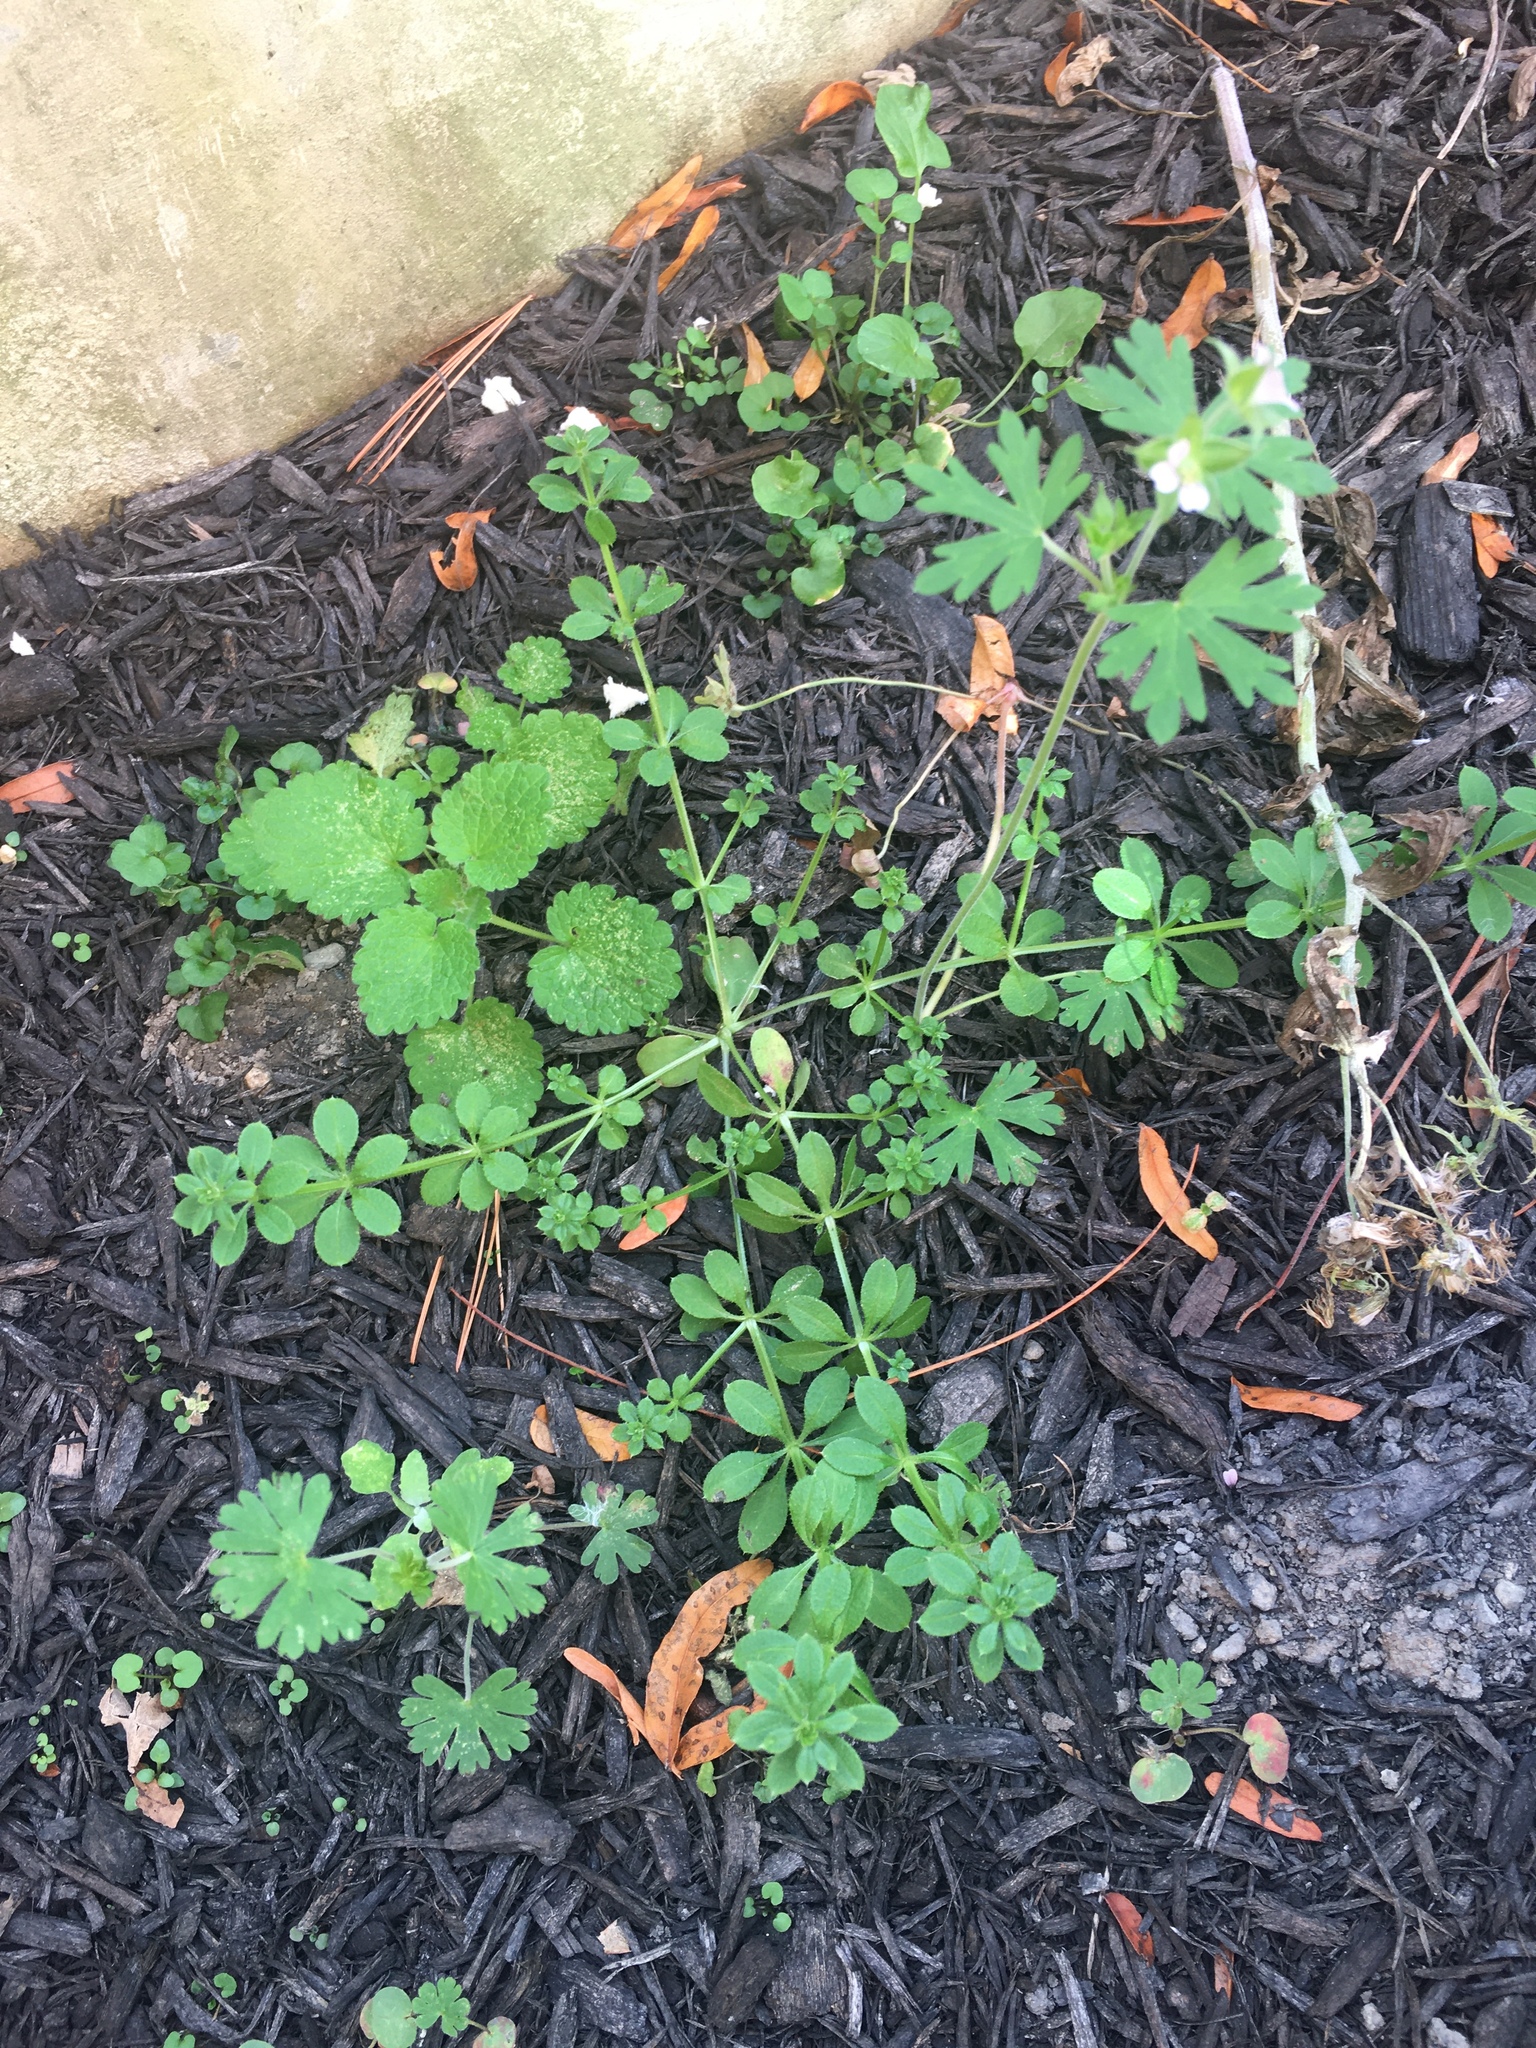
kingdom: Plantae
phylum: Tracheophyta
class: Magnoliopsida
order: Geraniales
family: Geraniaceae
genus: Geranium
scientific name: Geranium carolinianum
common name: Carolina crane's-bill
